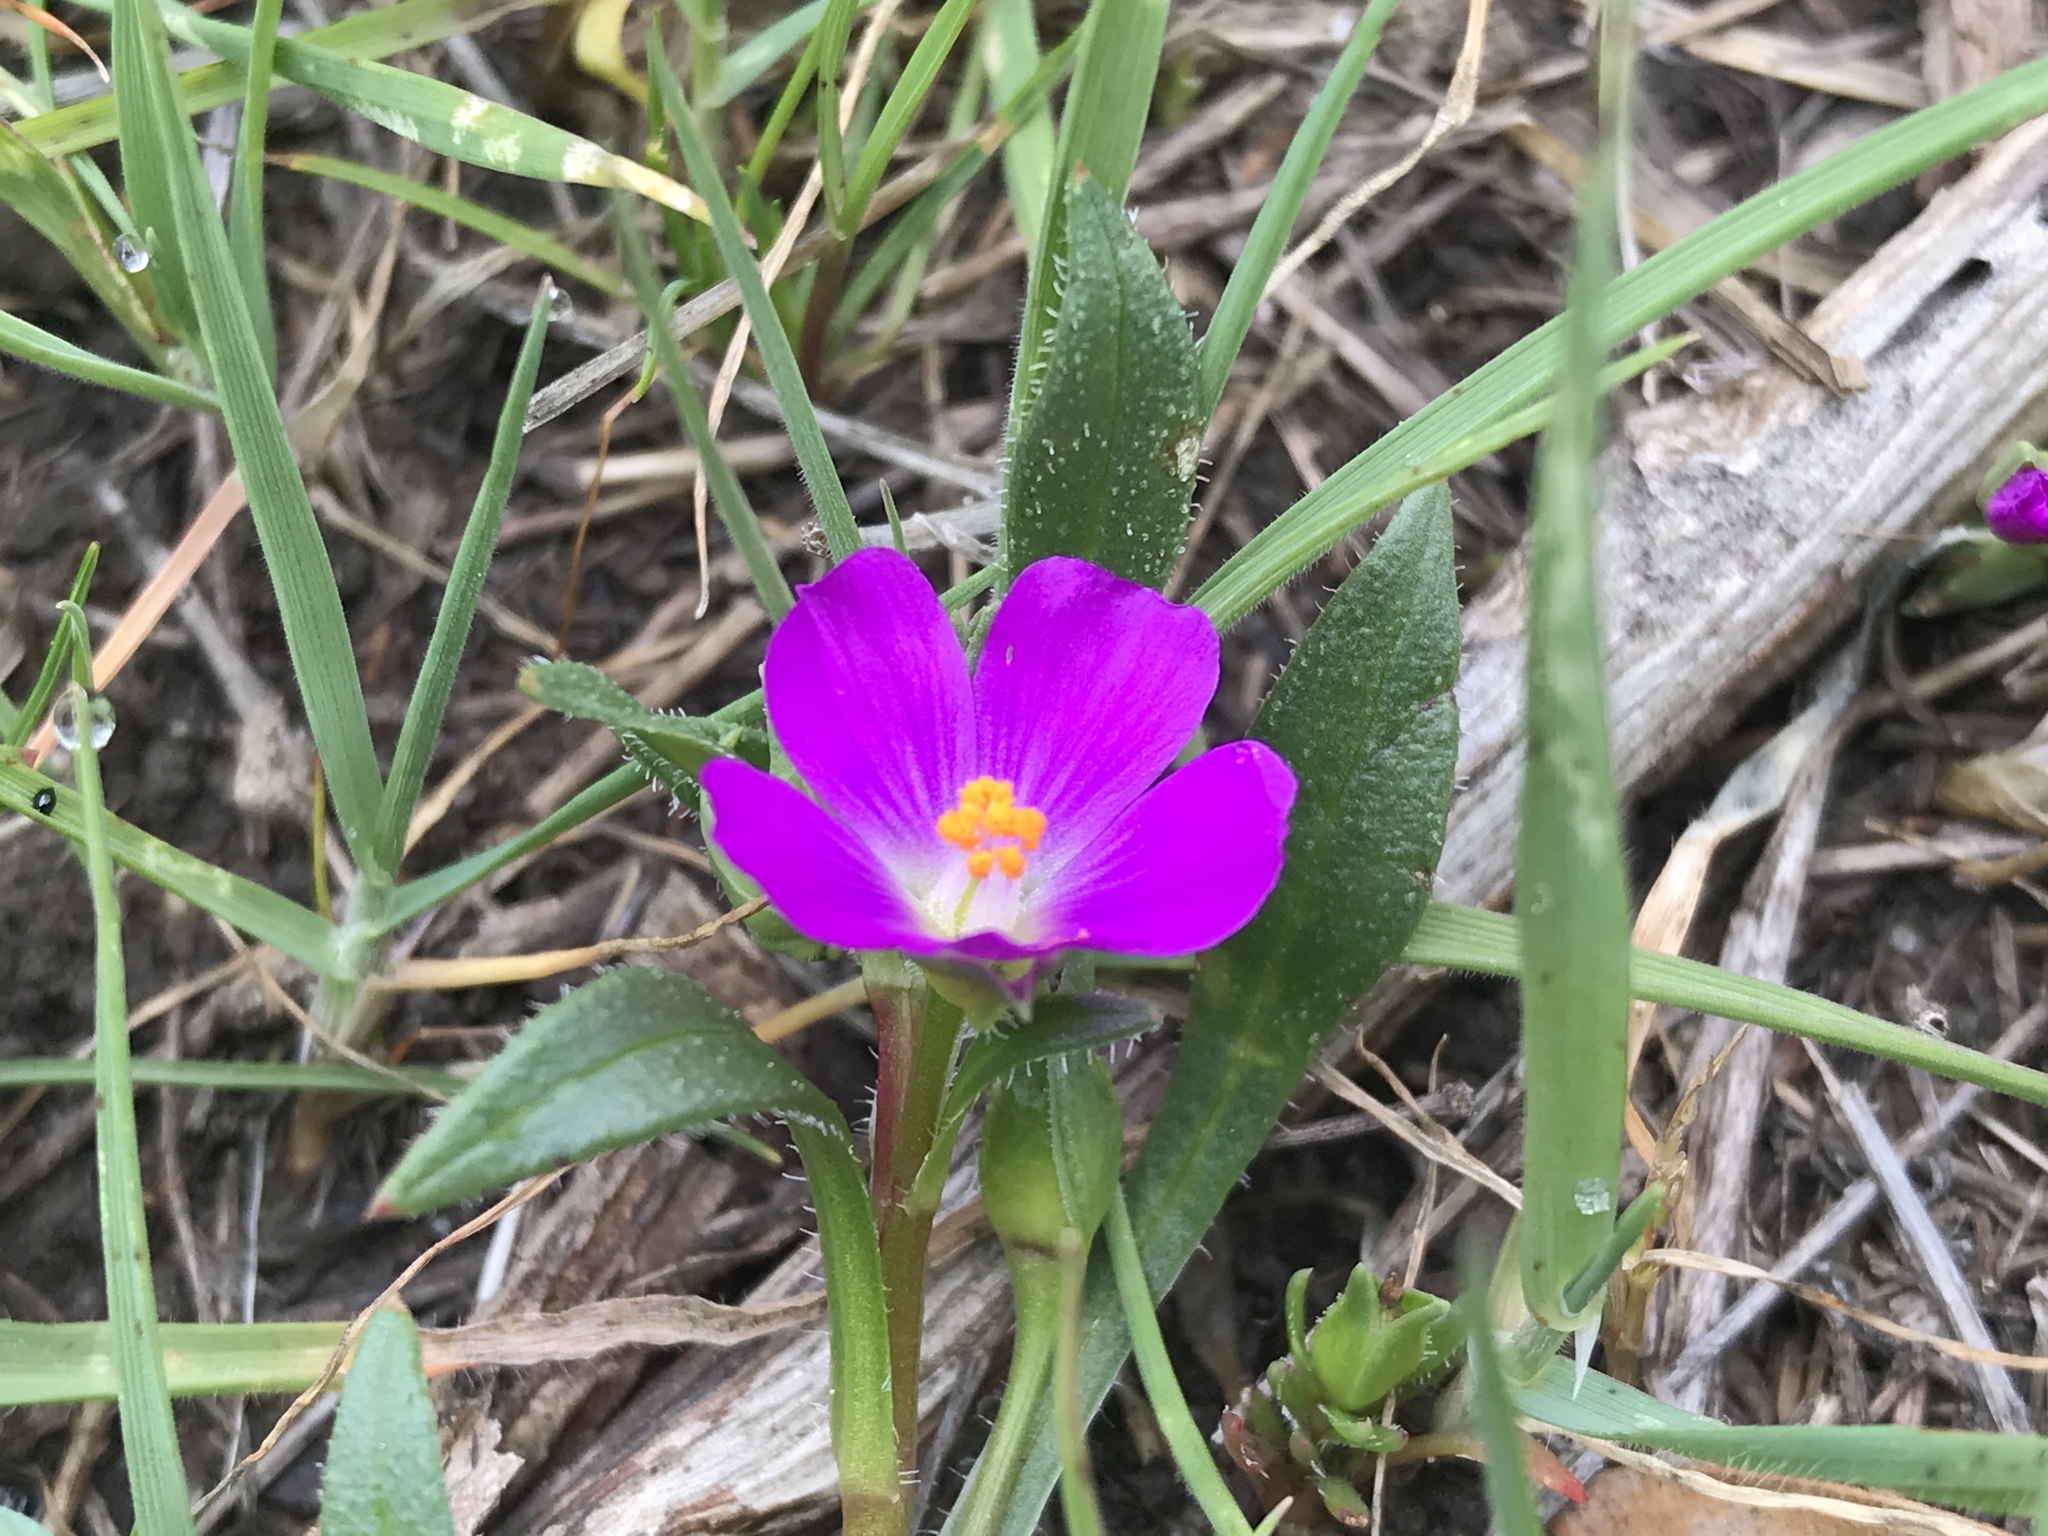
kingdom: Plantae
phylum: Tracheophyta
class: Magnoliopsida
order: Caryophyllales
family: Montiaceae
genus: Calandrinia
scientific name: Calandrinia menziesii
